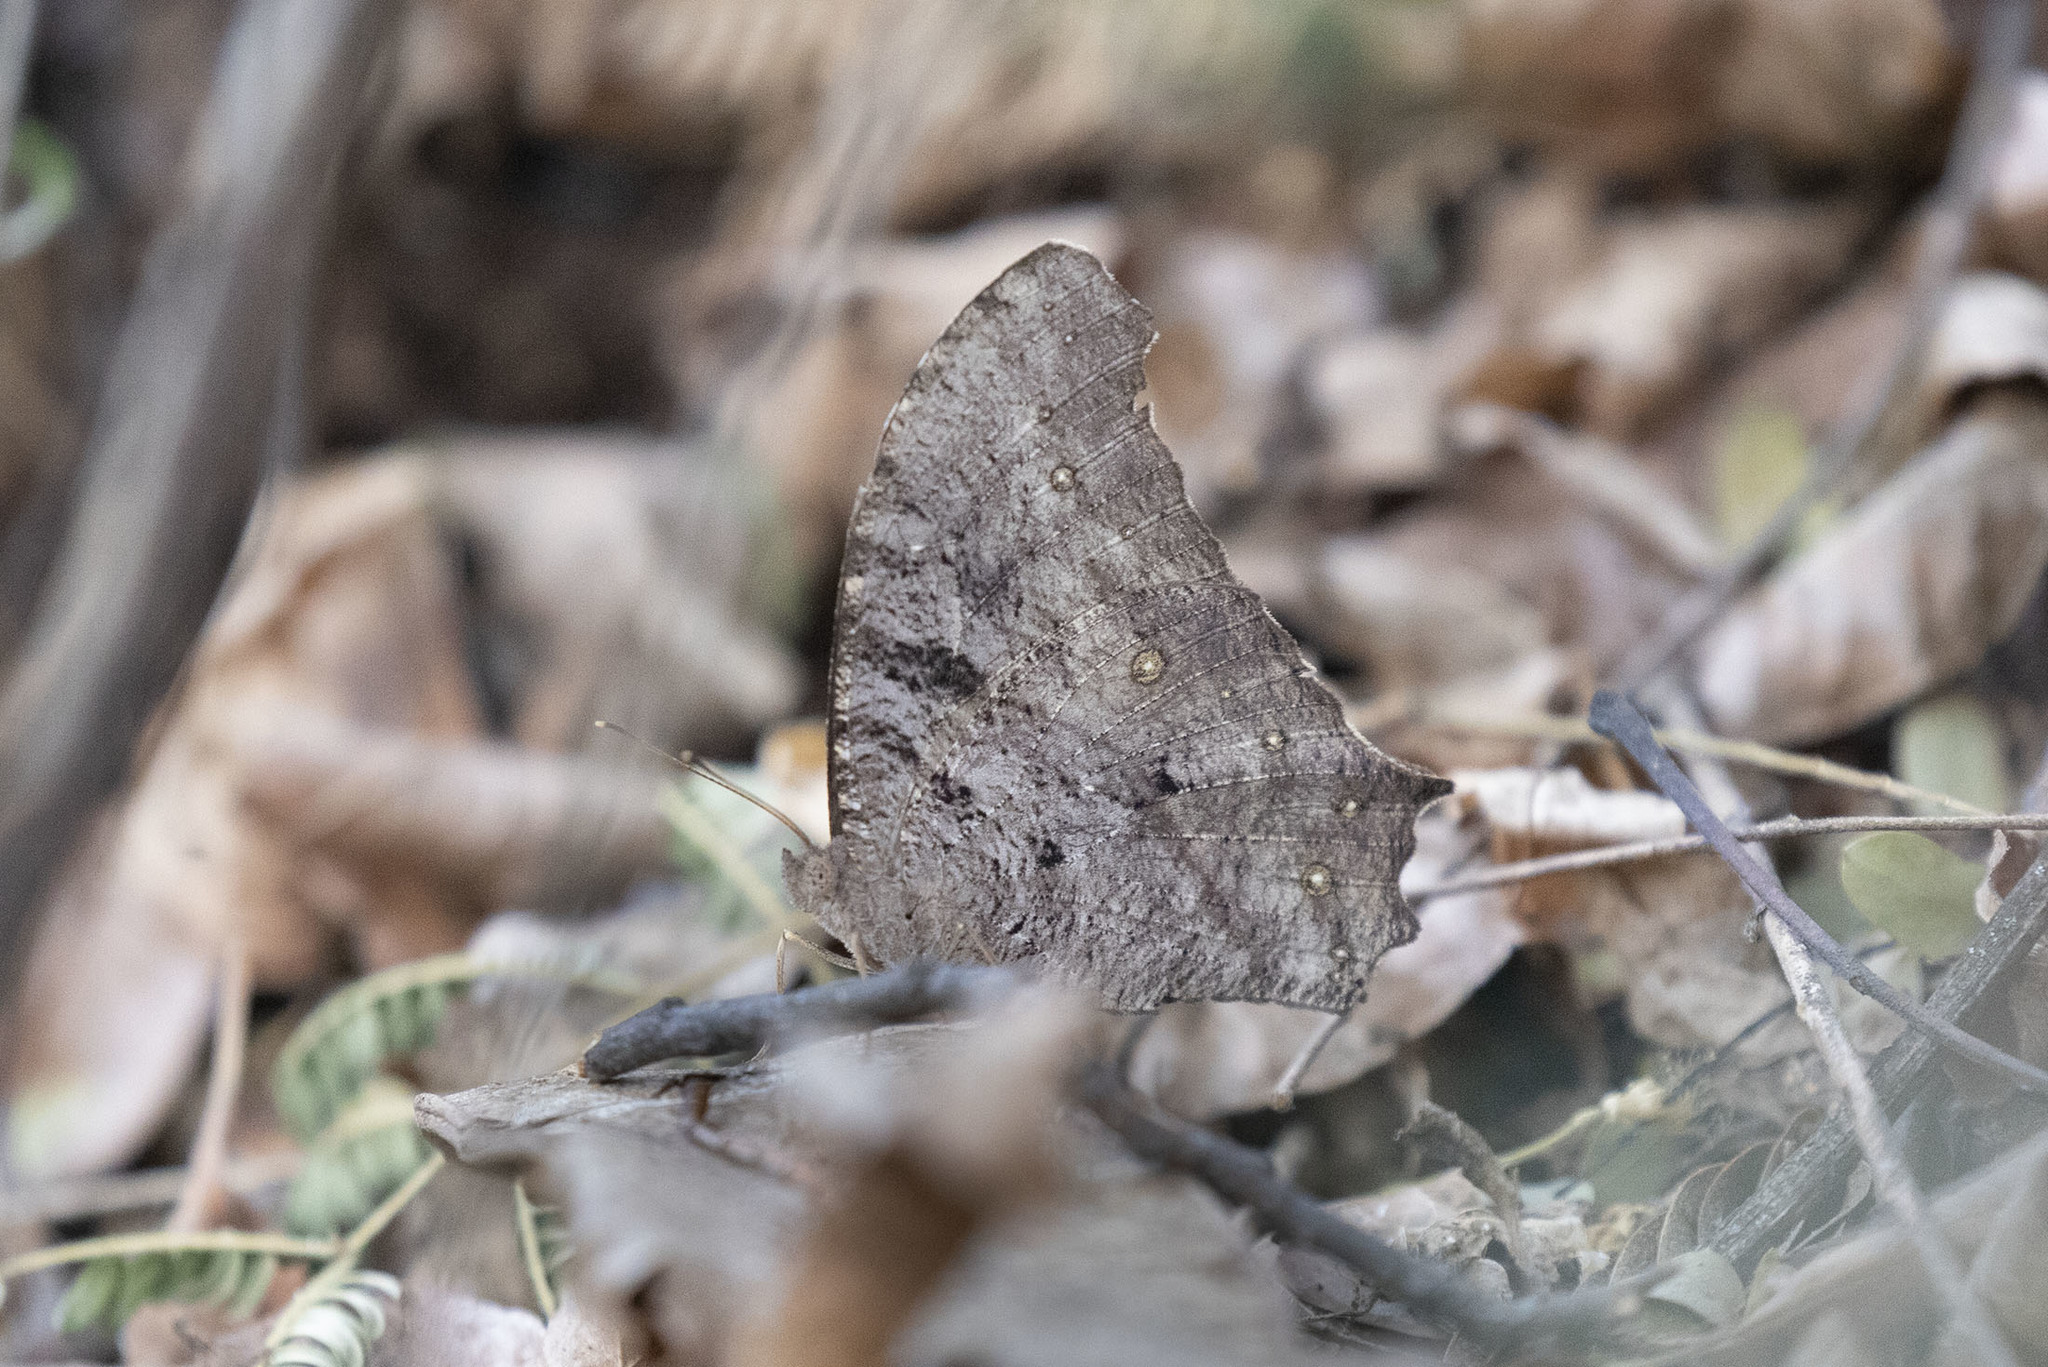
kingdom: Animalia
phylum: Arthropoda
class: Insecta
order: Lepidoptera
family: Nymphalidae
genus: Melanitis
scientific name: Melanitis leda
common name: Twilight brown
